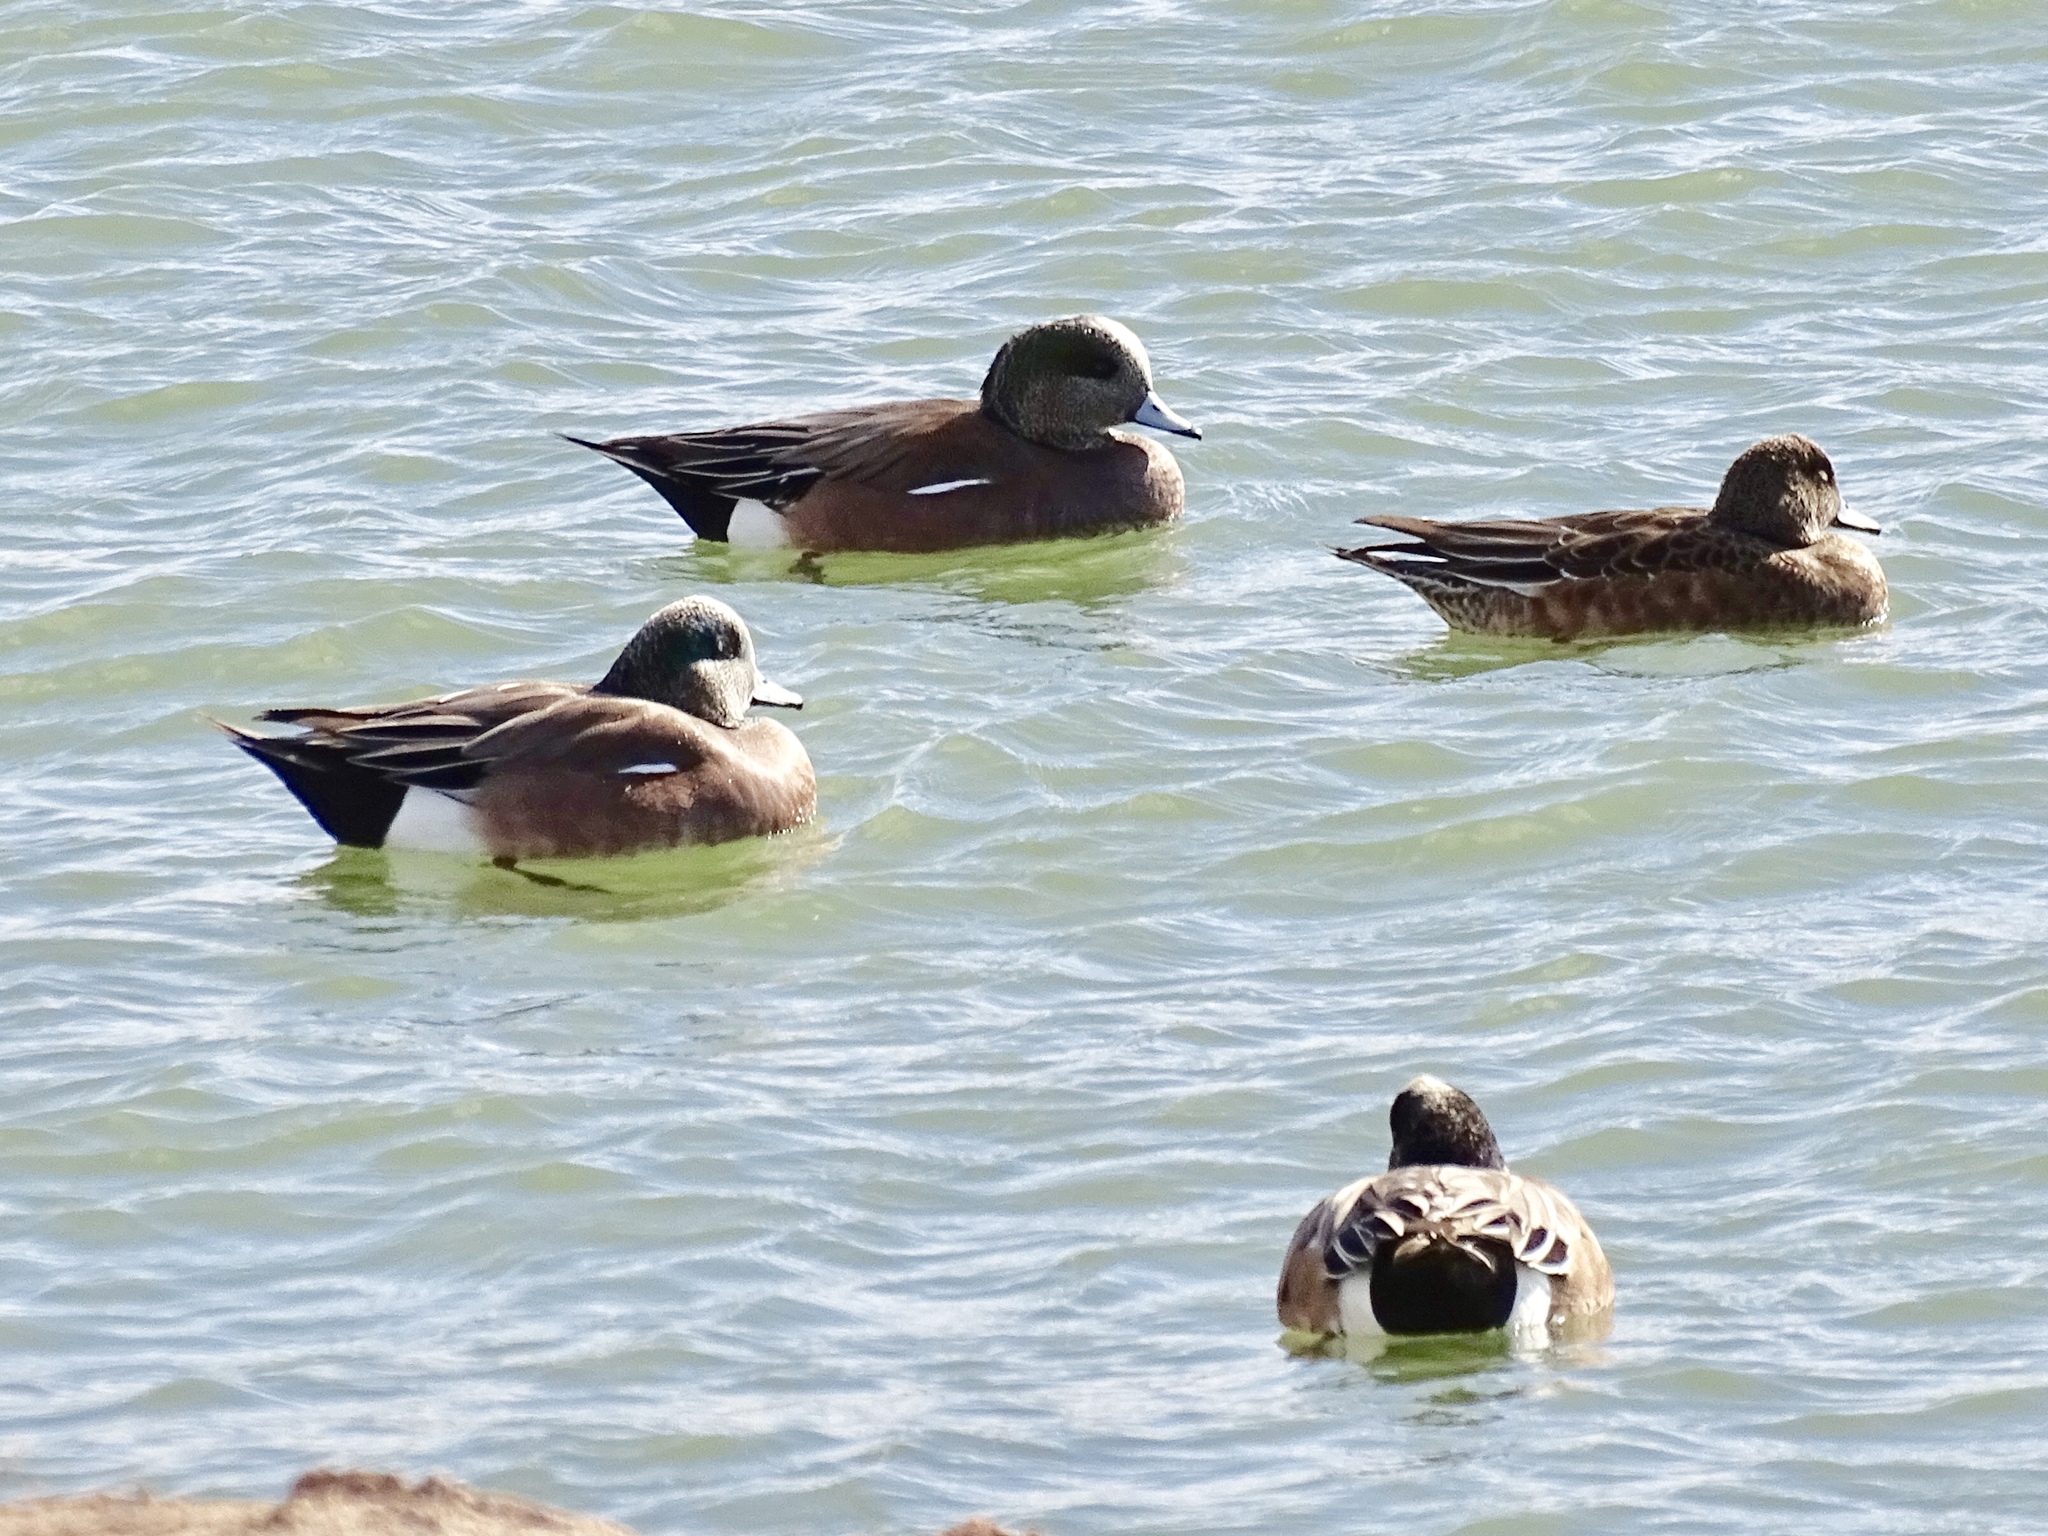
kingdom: Animalia
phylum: Chordata
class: Aves
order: Anseriformes
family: Anatidae
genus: Mareca
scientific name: Mareca americana
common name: American wigeon
